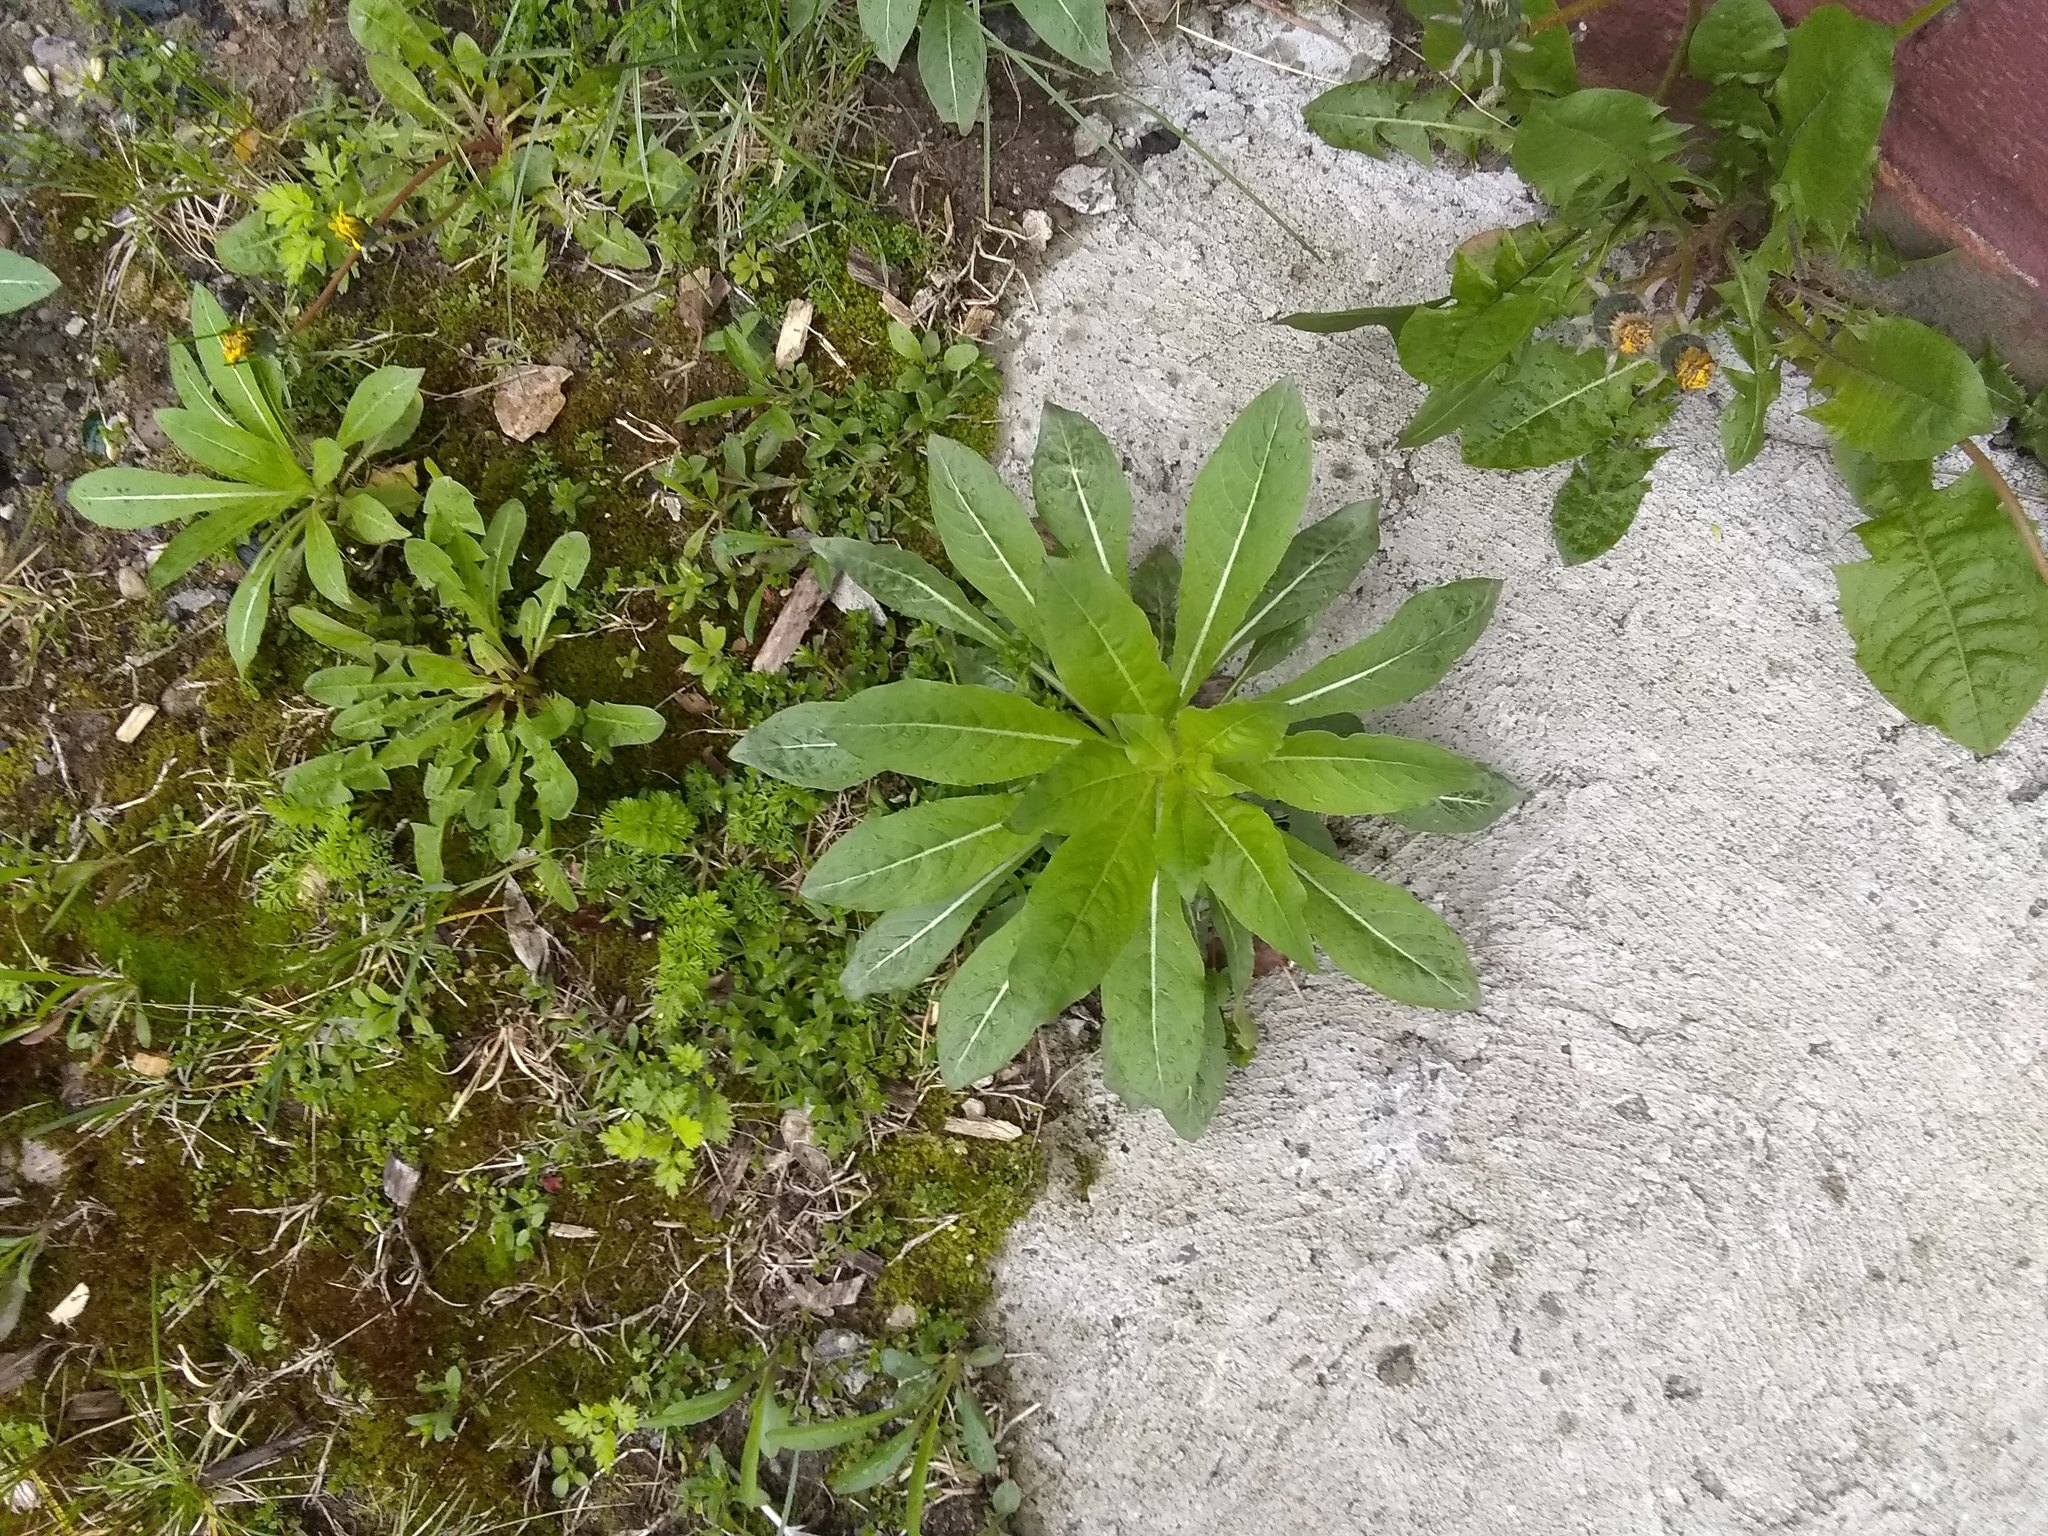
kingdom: Plantae
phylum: Tracheophyta
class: Magnoliopsida
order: Myrtales
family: Onagraceae
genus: Oenothera
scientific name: Oenothera biennis
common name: Common evening-primrose
